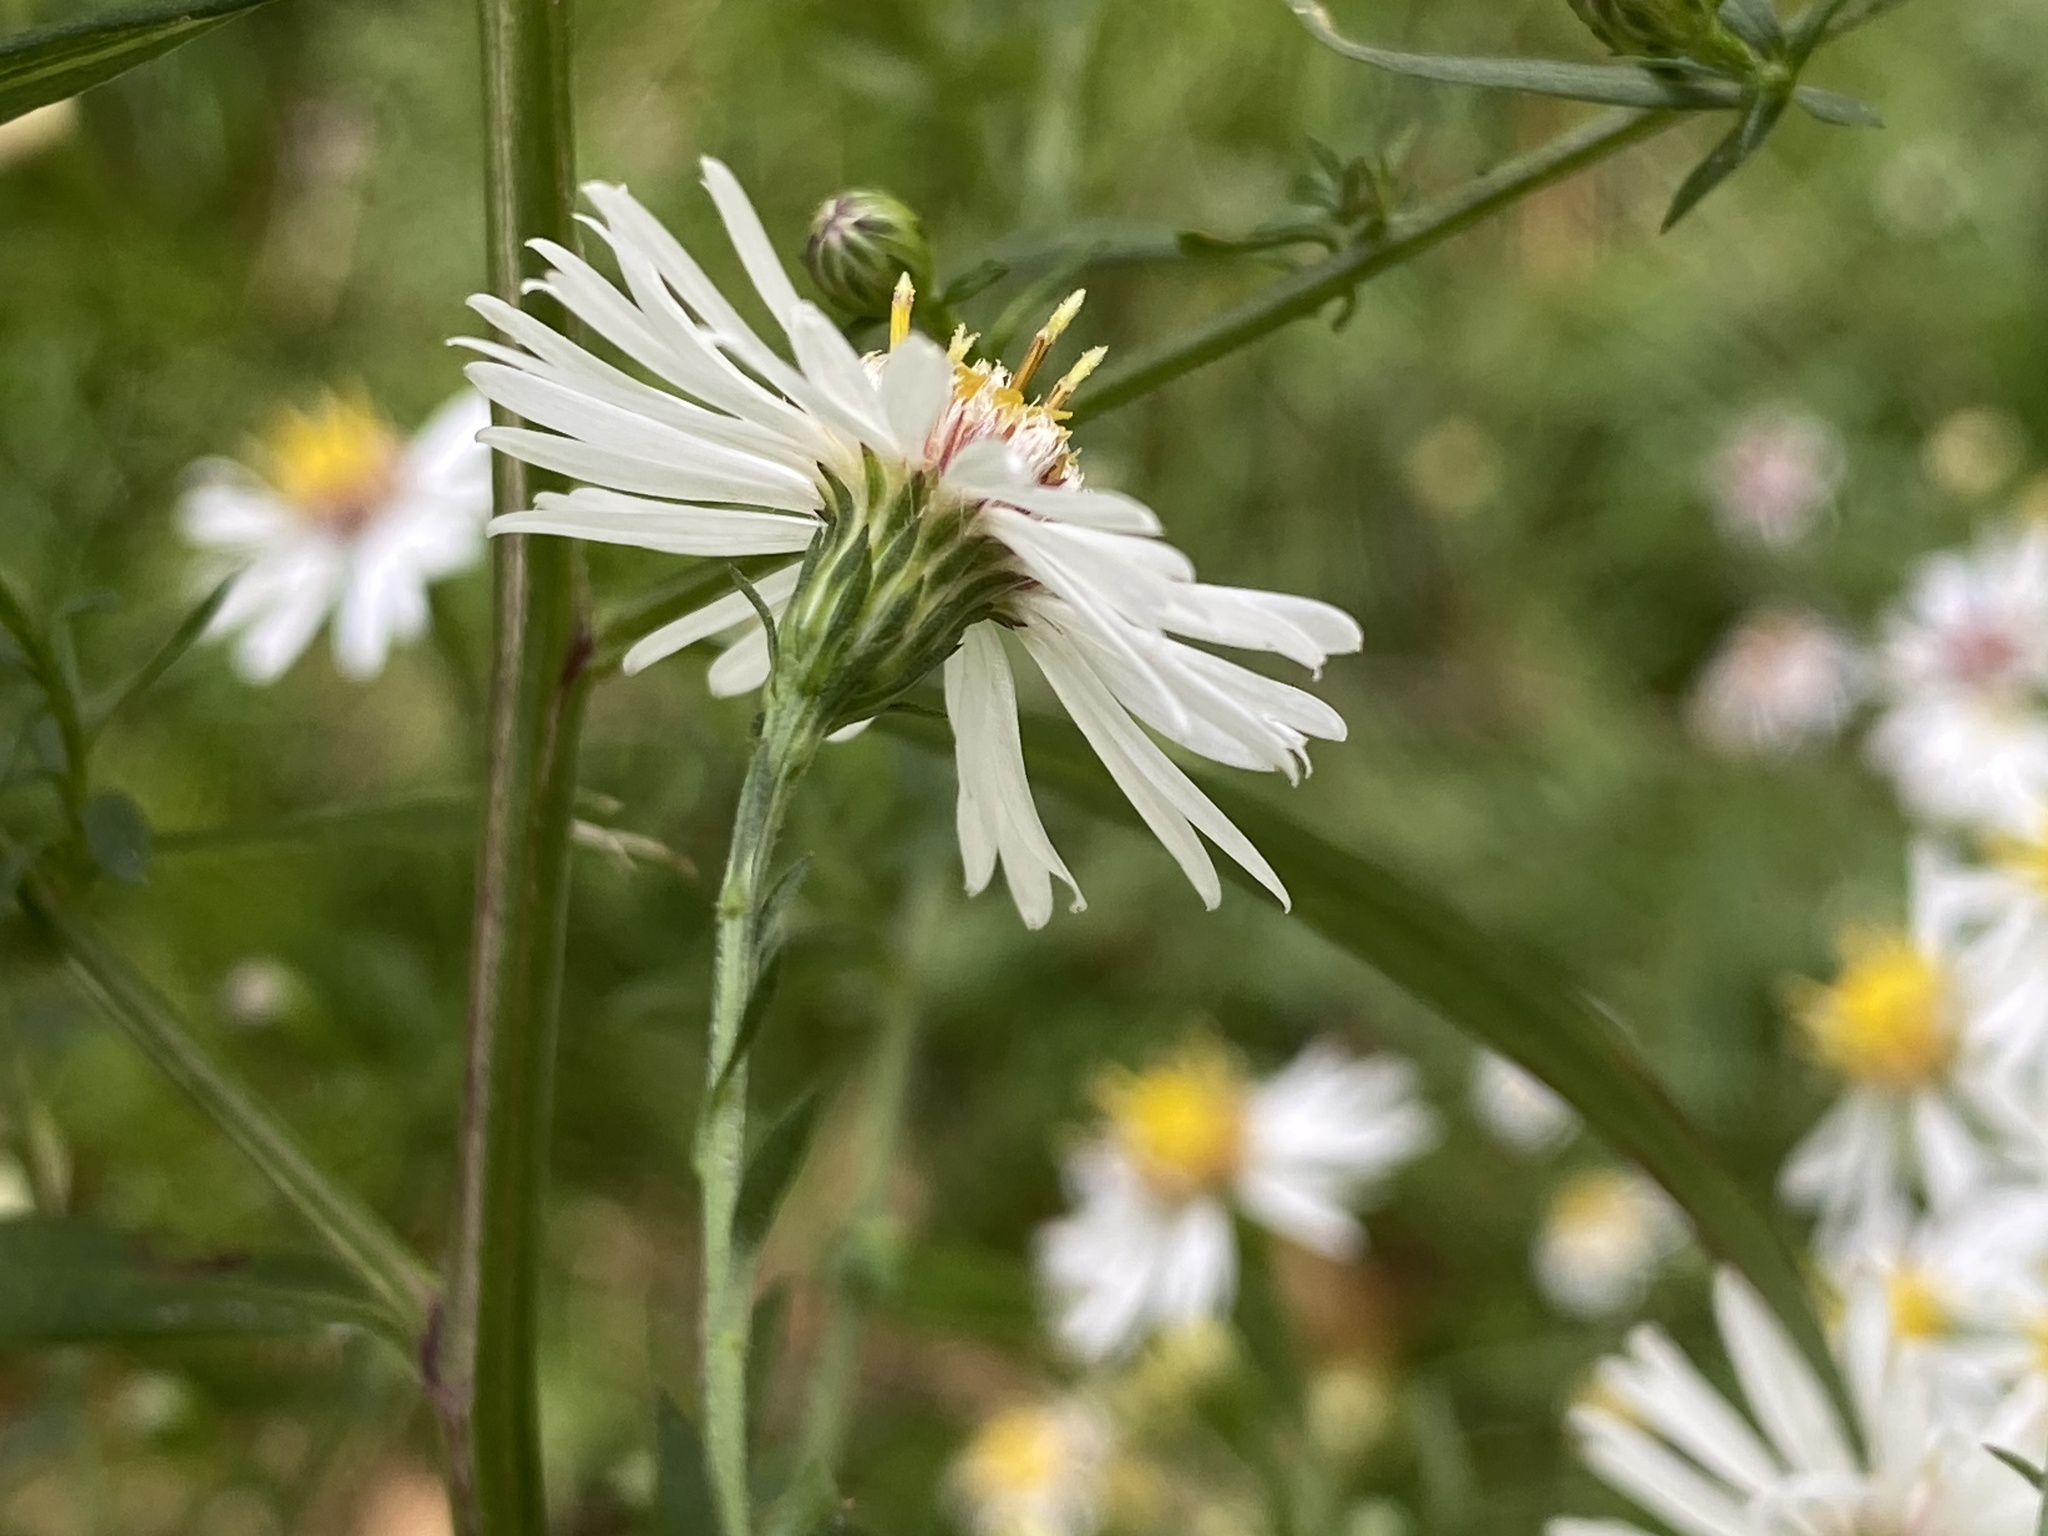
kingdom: Plantae
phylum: Tracheophyta
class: Magnoliopsida
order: Asterales
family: Asteraceae
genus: Symphyotrichum
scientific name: Symphyotrichum lanceolatum
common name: Panicled aster
